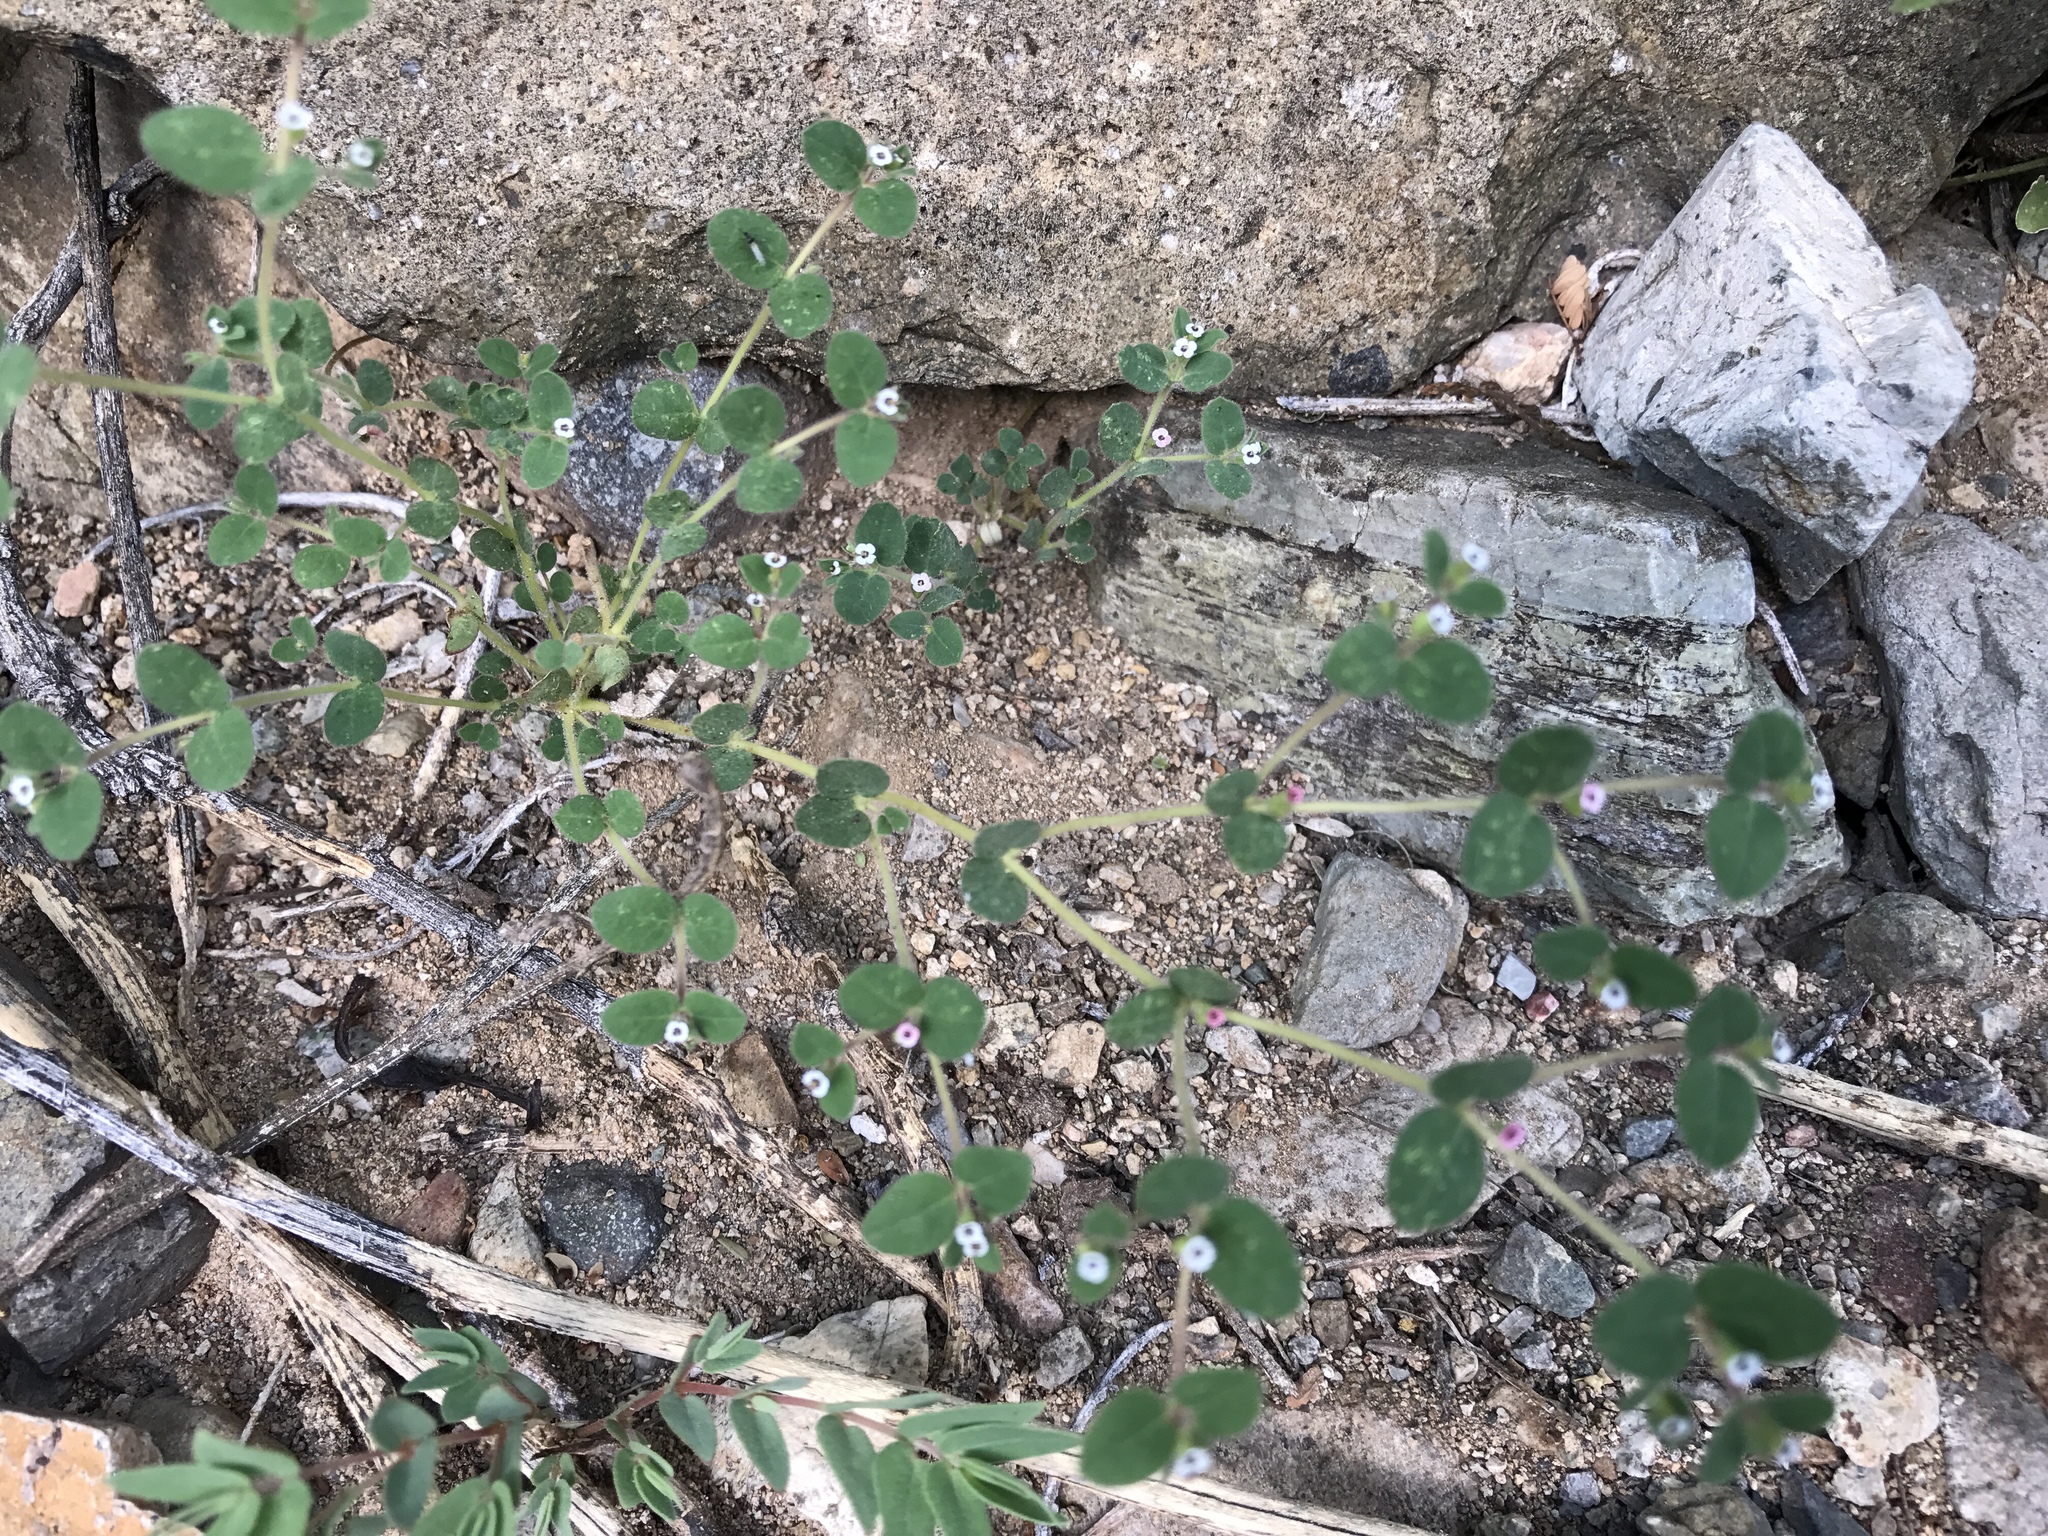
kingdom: Plantae
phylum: Tracheophyta
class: Magnoliopsida
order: Malpighiales
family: Euphorbiaceae
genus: Euphorbia
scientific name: Euphorbia arizonica
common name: Arizona spurge
